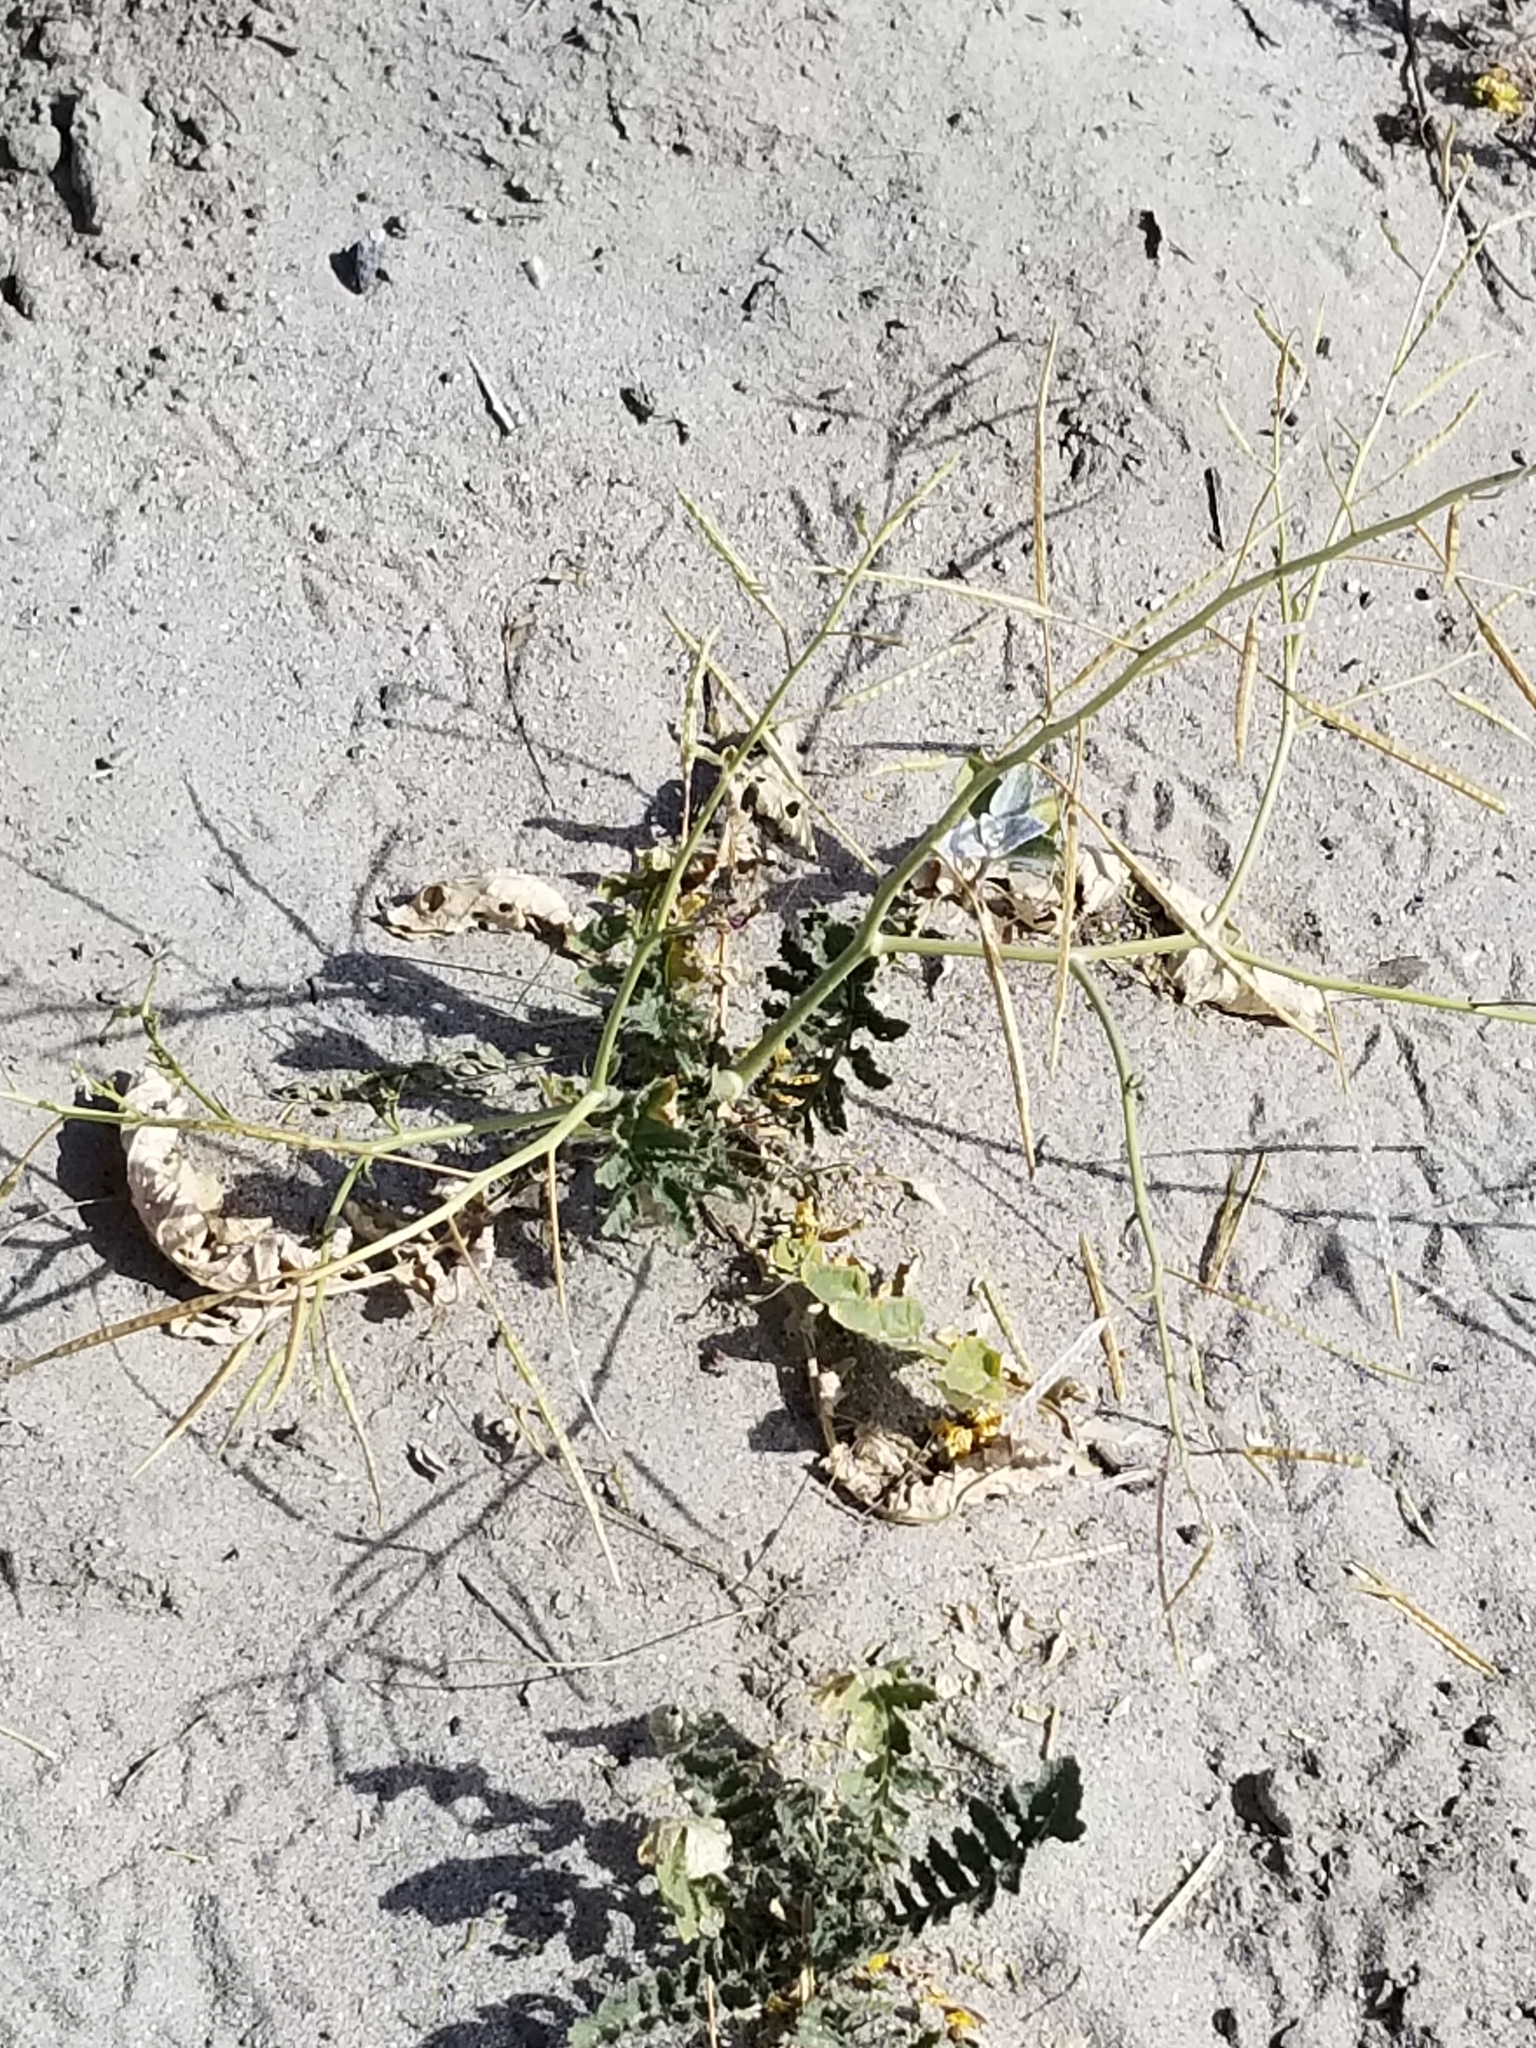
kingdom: Plantae
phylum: Tracheophyta
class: Magnoliopsida
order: Brassicales
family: Brassicaceae
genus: Brassica
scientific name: Brassica tournefortii
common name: Pale cabbage
